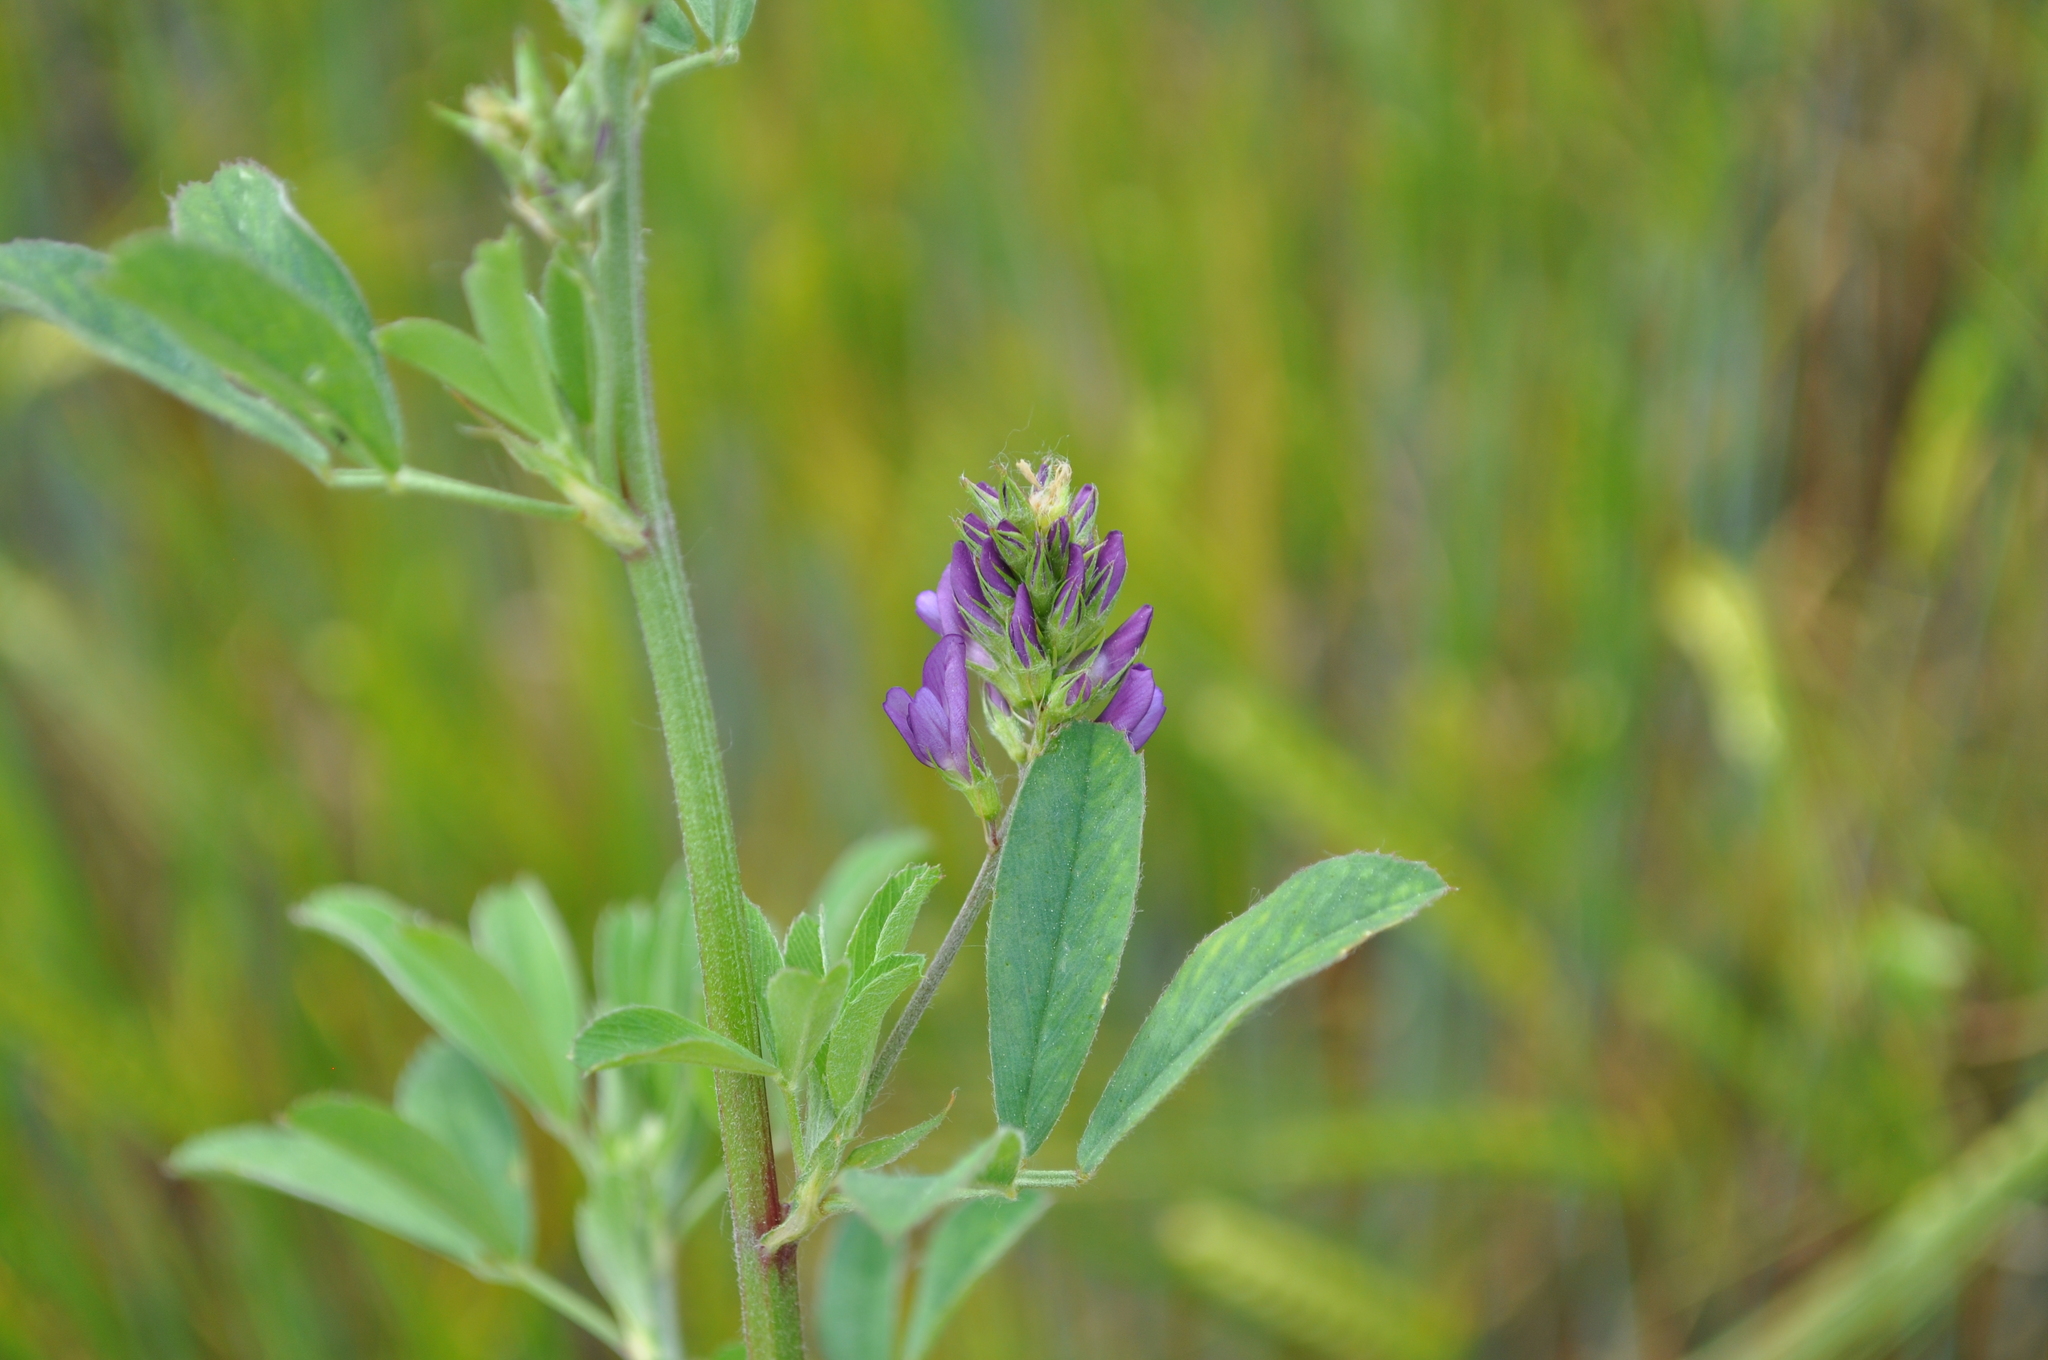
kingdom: Plantae
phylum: Tracheophyta
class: Magnoliopsida
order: Fabales
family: Fabaceae
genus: Medicago
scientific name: Medicago sativa
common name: Alfalfa
